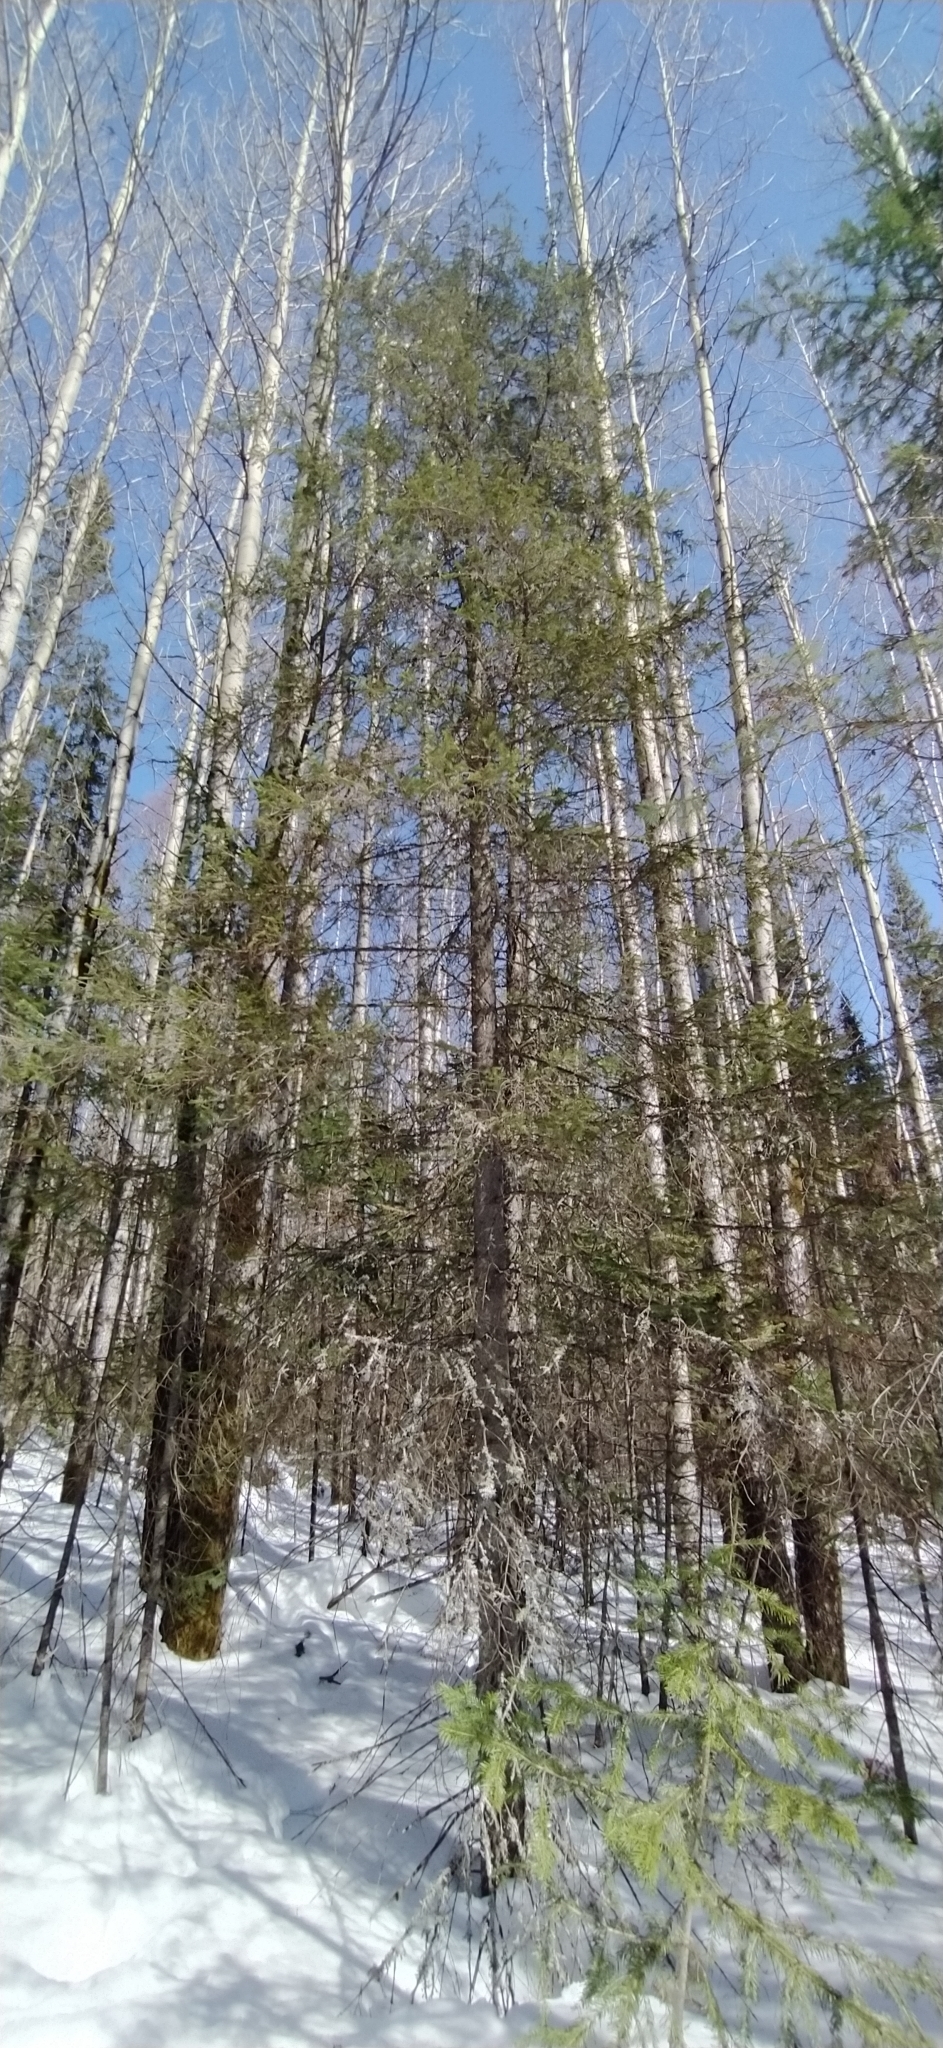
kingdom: Plantae
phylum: Tracheophyta
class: Pinopsida
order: Pinales
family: Pinaceae
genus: Abies
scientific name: Abies sibirica
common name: Siberian fir
